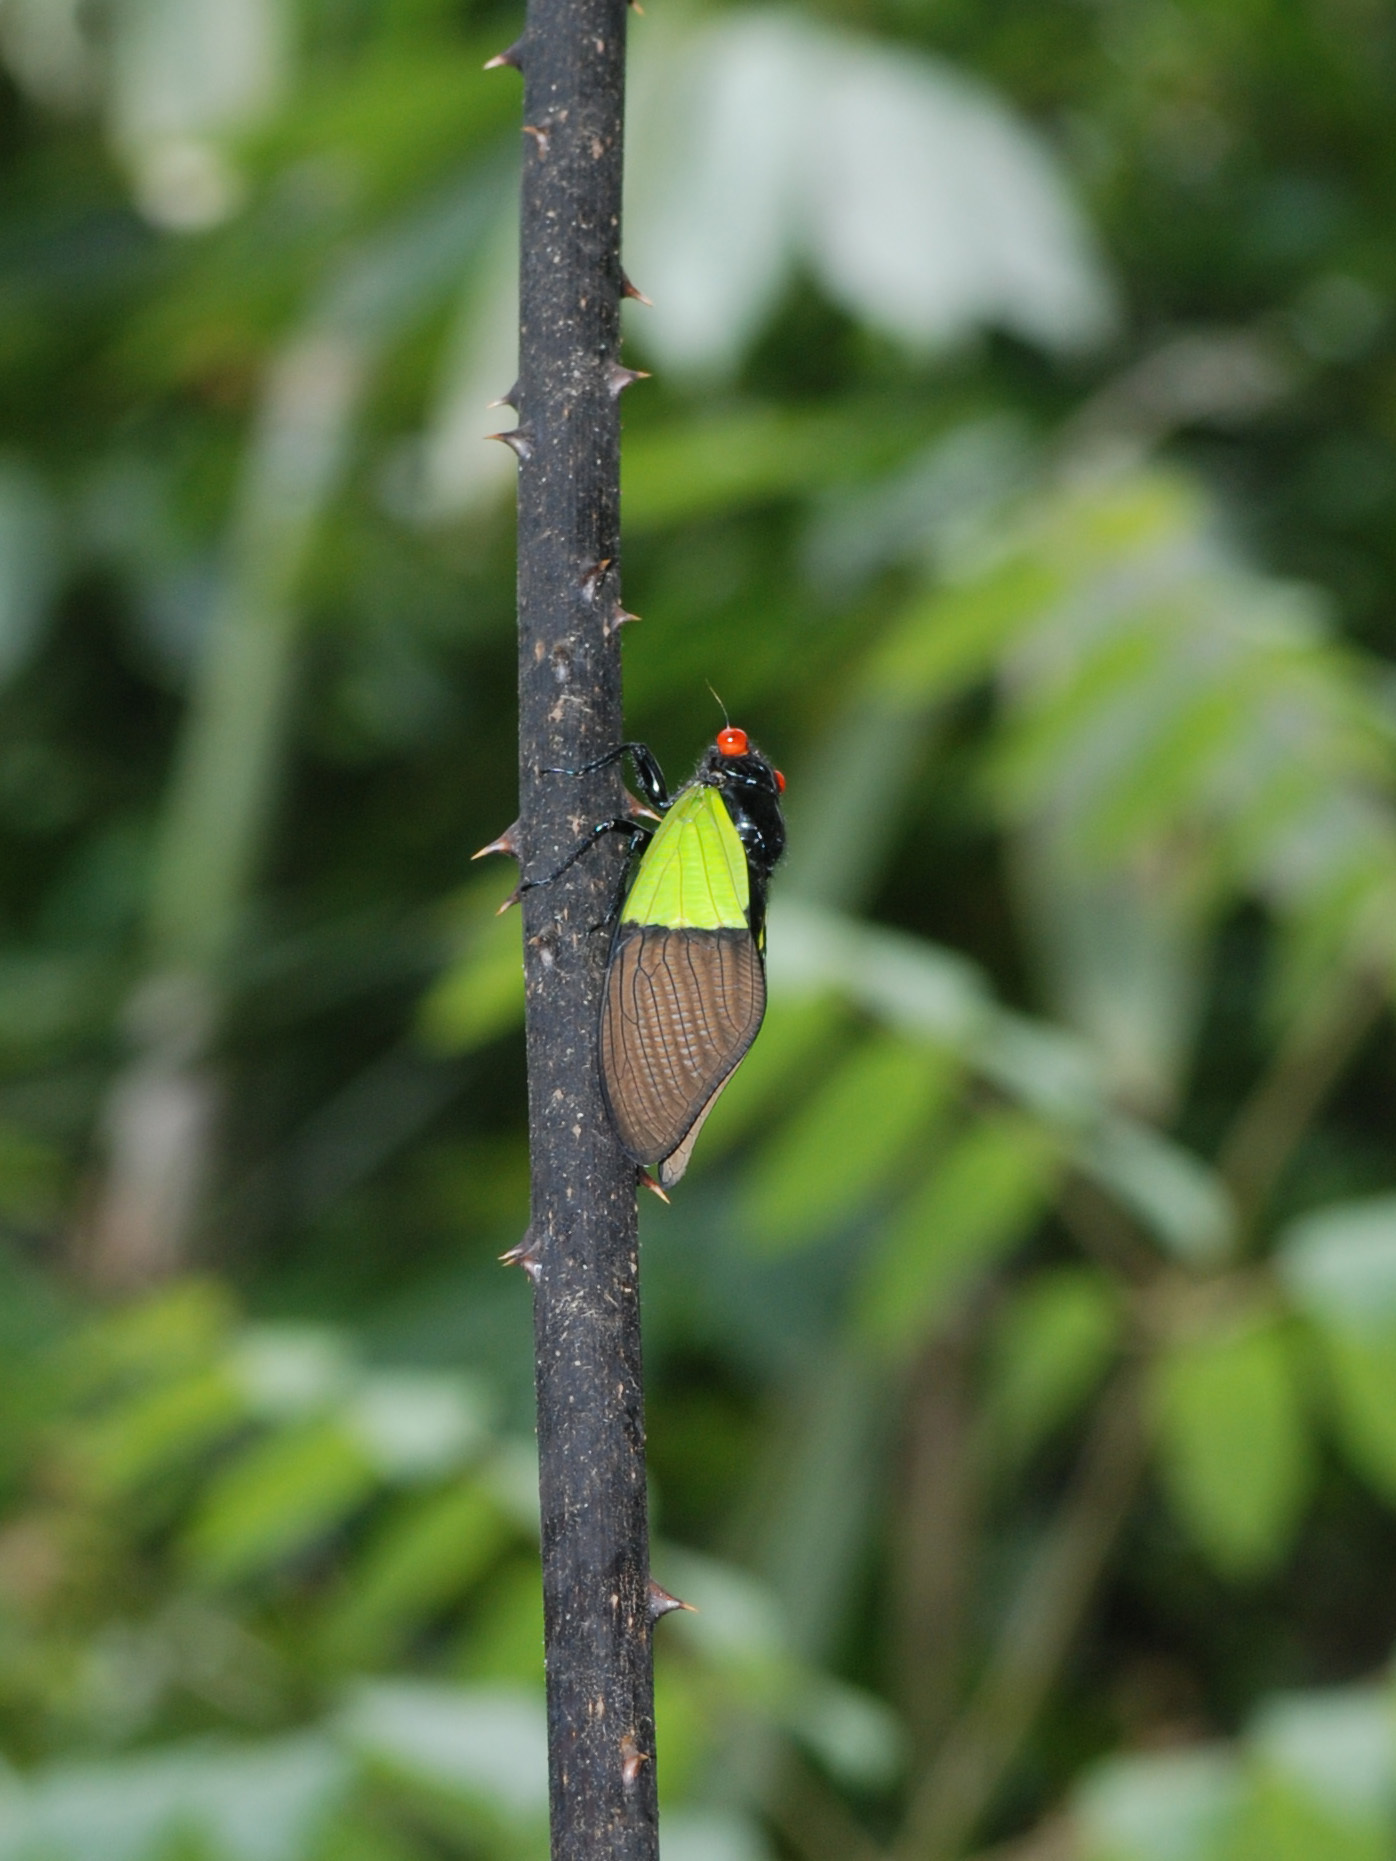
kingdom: Animalia
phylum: Arthropoda
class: Insecta
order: Hemiptera
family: Cicadidae
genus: Trengganua
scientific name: Trengganua sibylla
